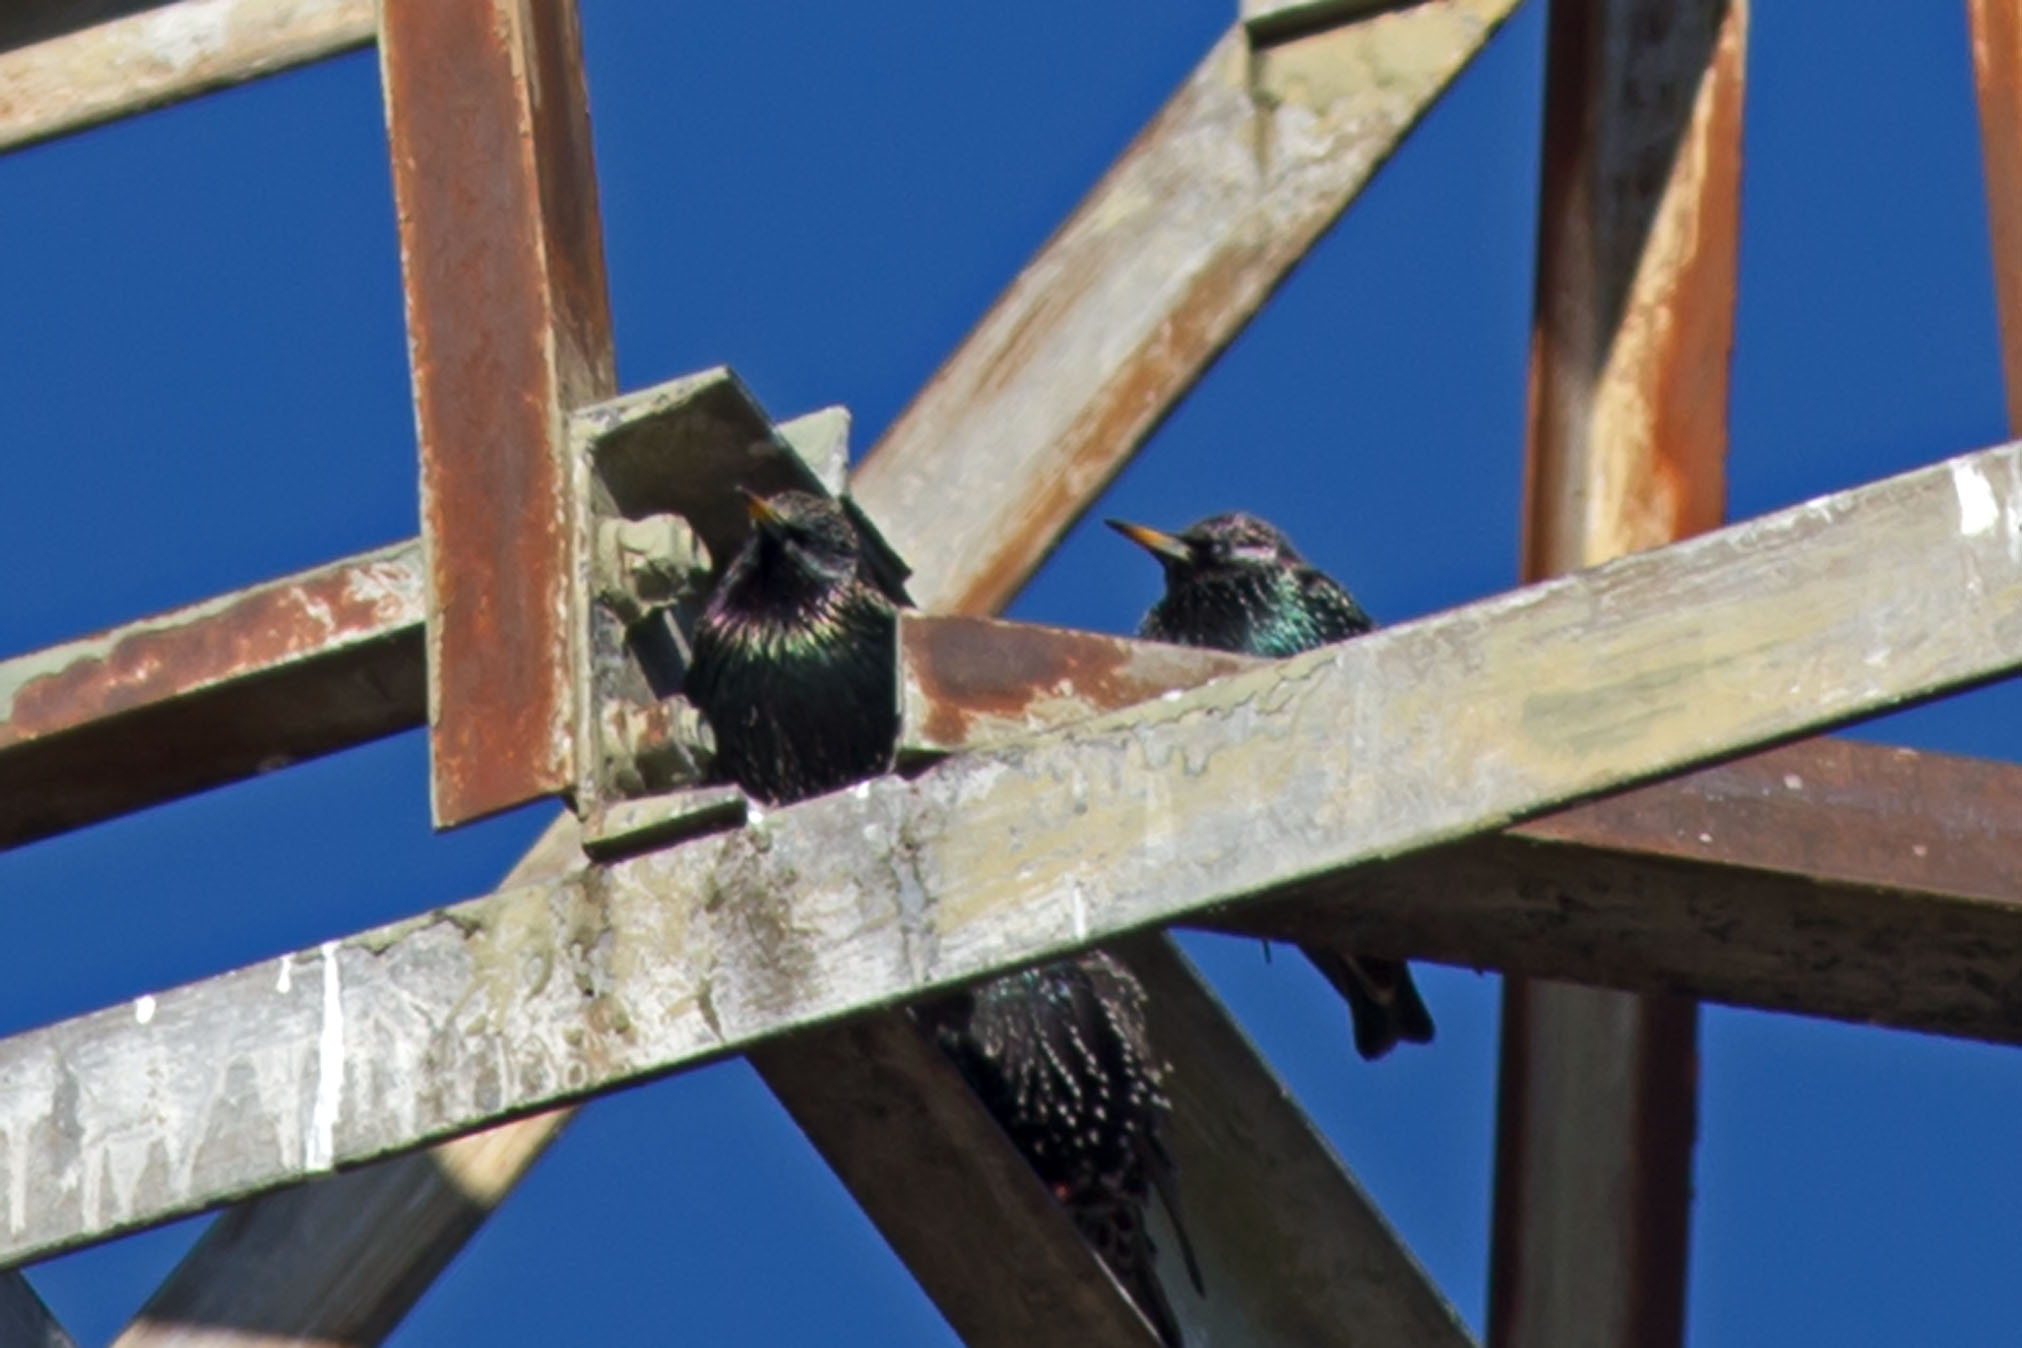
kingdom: Animalia
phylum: Chordata
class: Aves
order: Passeriformes
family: Sturnidae
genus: Sturnus
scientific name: Sturnus vulgaris
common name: Common starling
